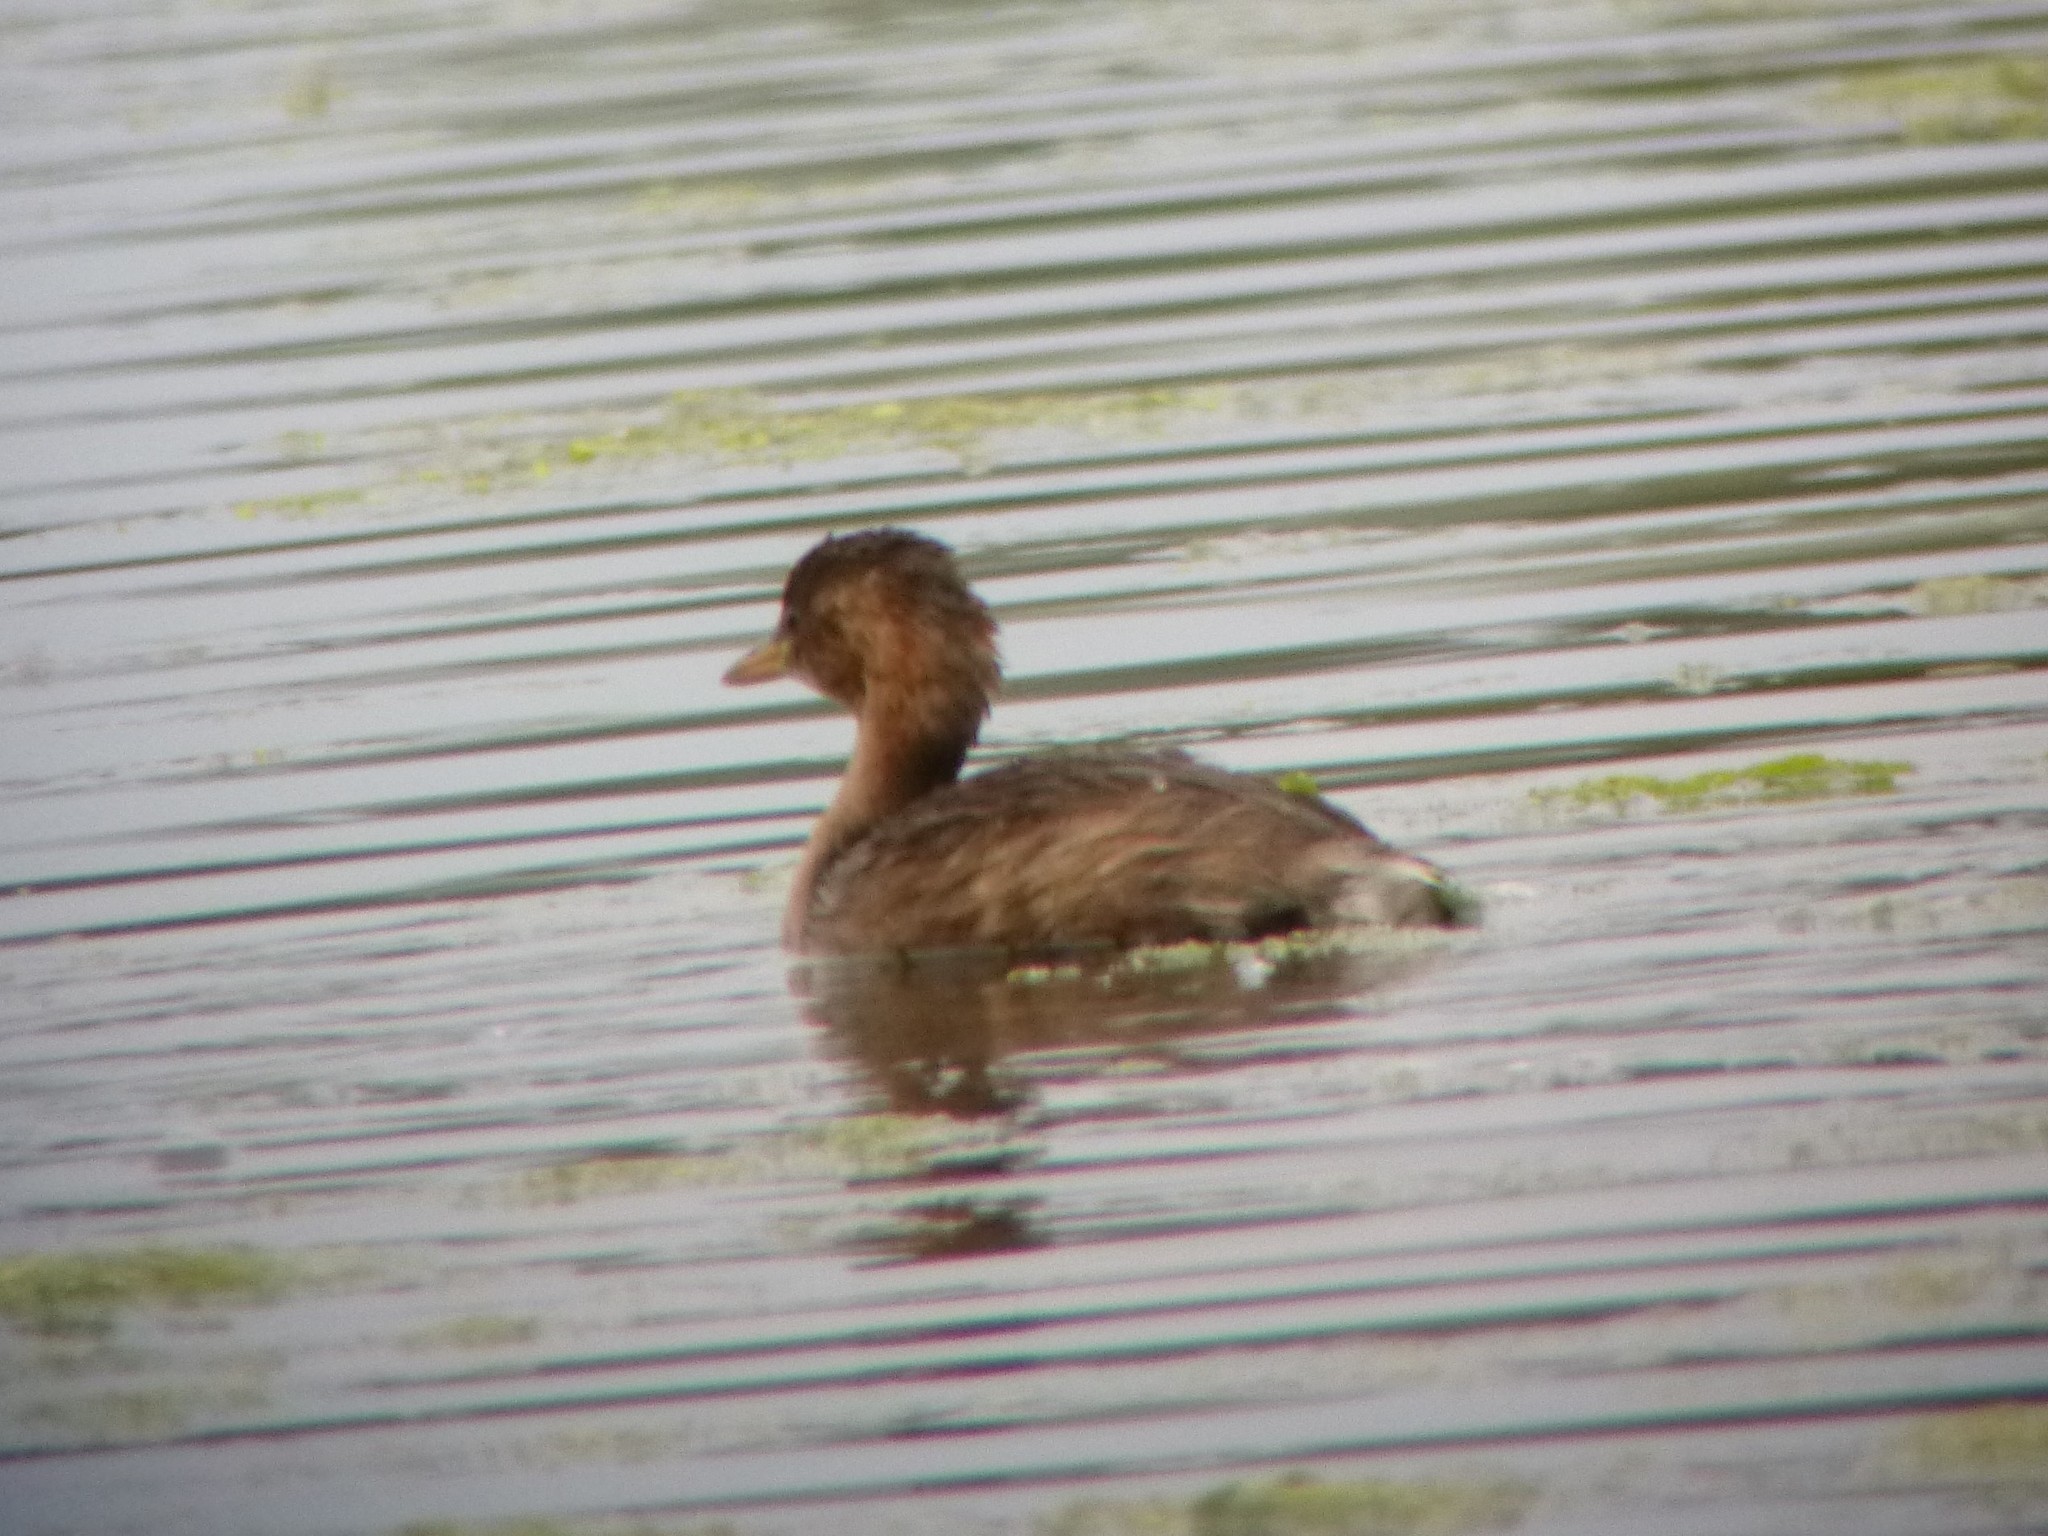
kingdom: Animalia
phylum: Chordata
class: Aves
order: Podicipediformes
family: Podicipedidae
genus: Tachybaptus
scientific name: Tachybaptus ruficollis
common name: Little grebe
